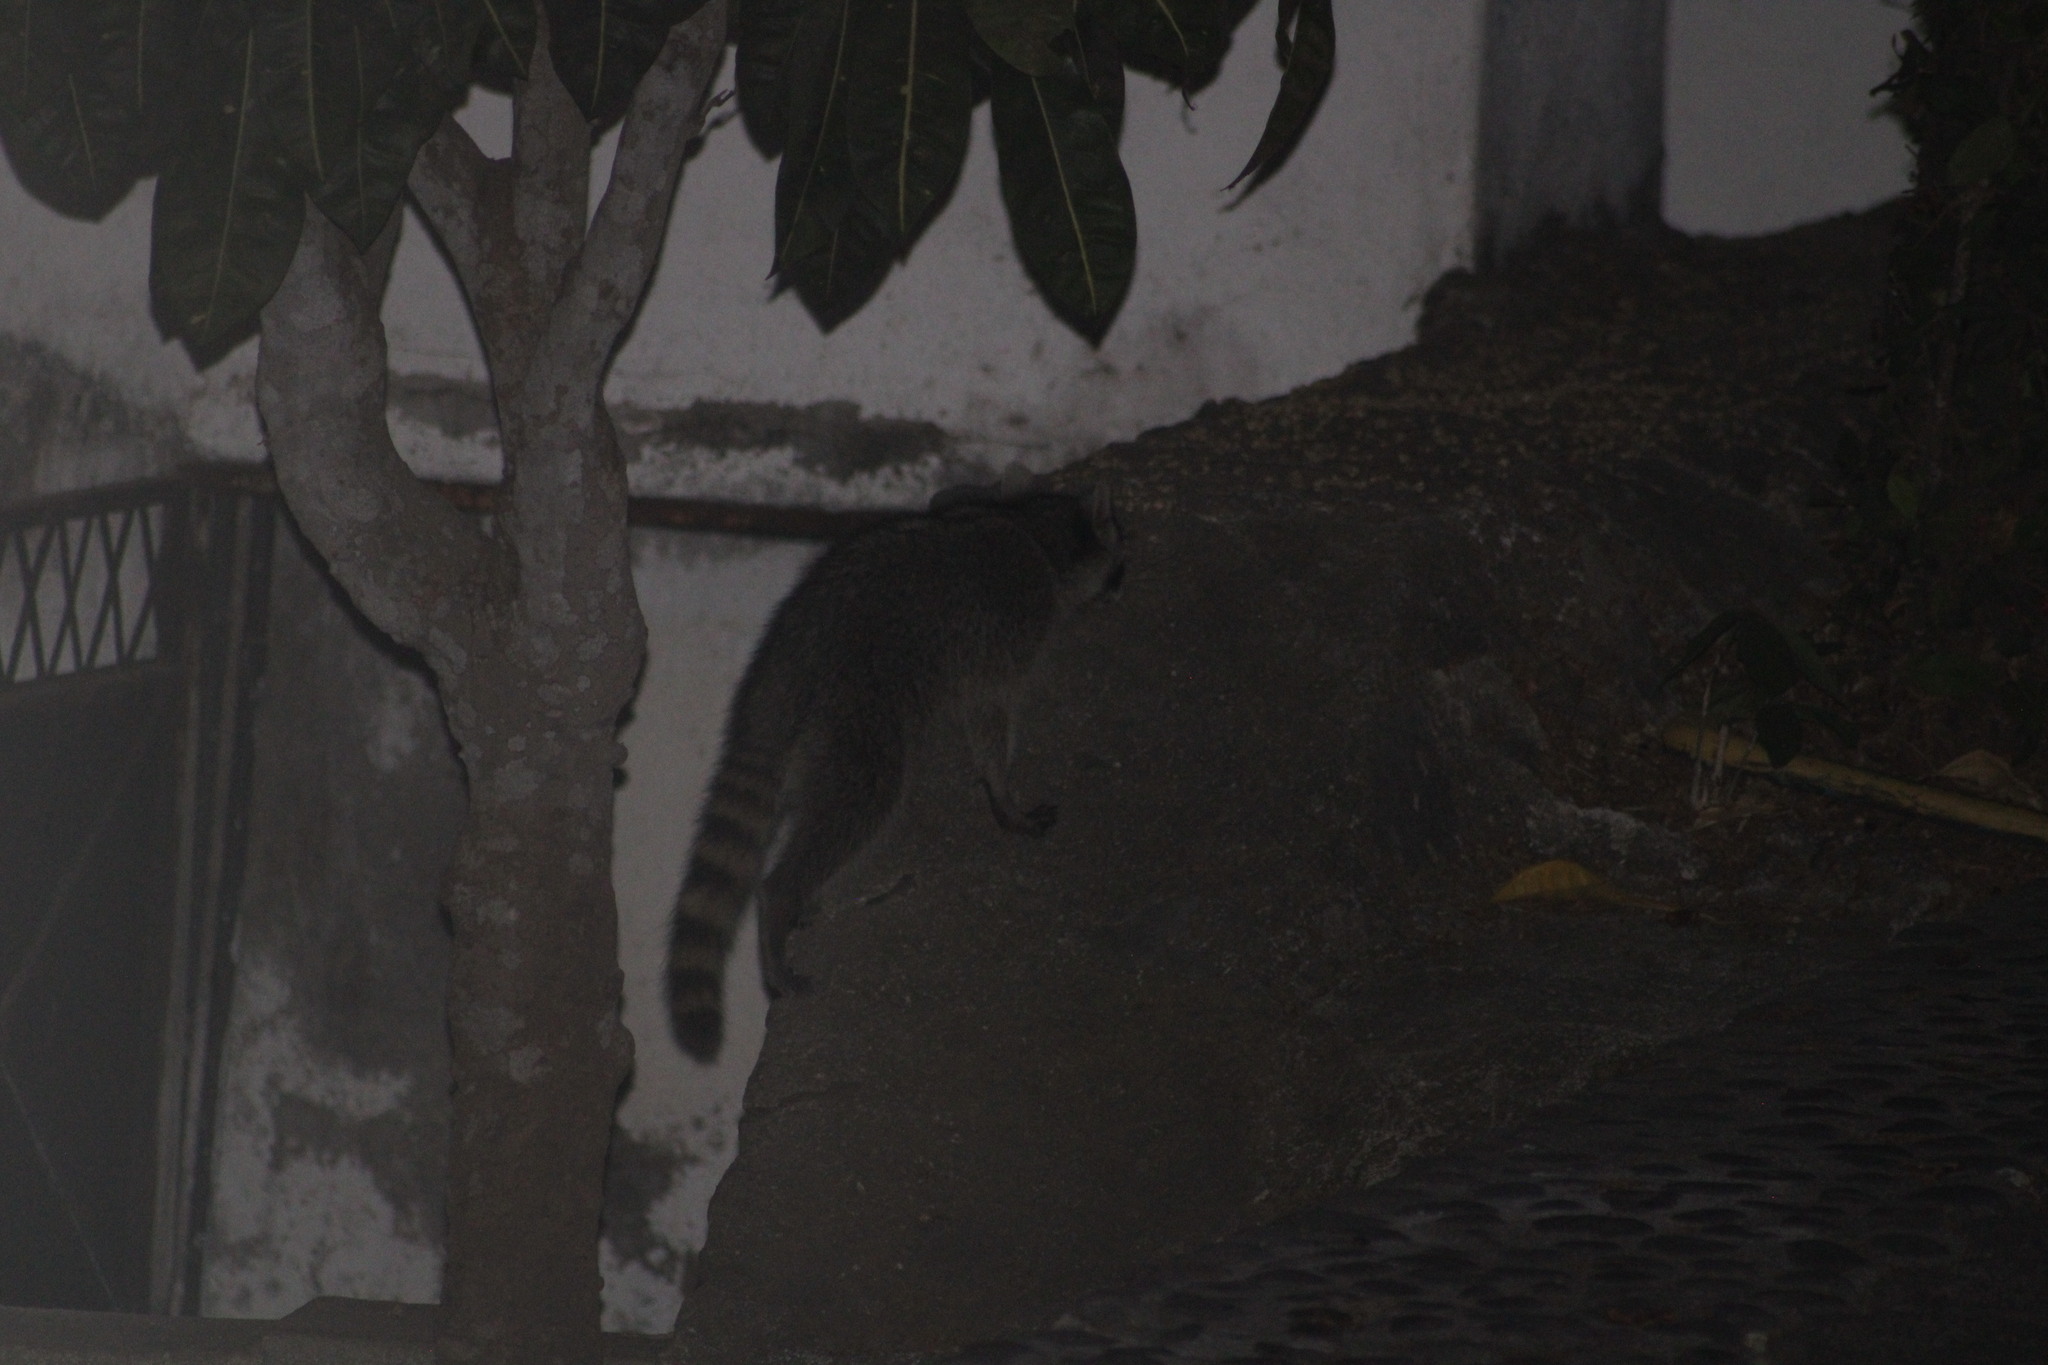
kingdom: Animalia
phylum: Chordata
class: Mammalia
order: Carnivora
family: Procyonidae
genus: Procyon
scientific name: Procyon lotor
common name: Raccoon
